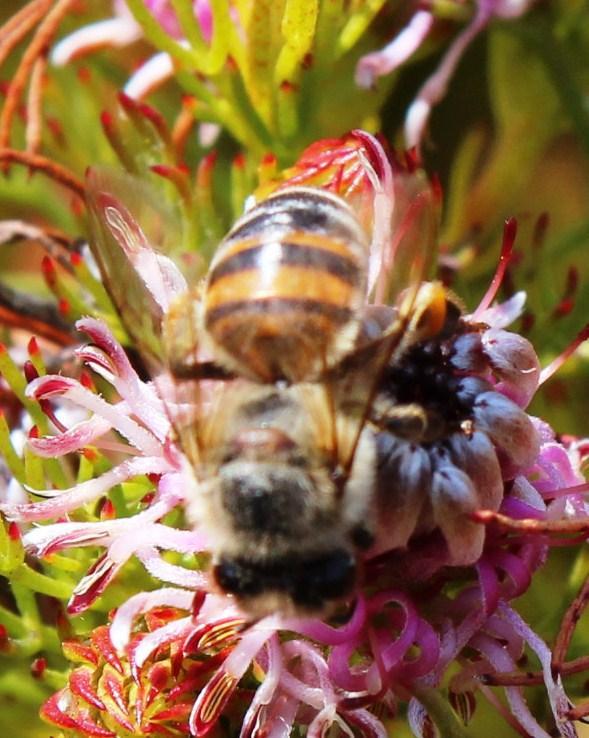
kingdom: Animalia
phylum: Arthropoda
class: Insecta
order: Hymenoptera
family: Apidae
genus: Apis
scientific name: Apis mellifera
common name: Honey bee
